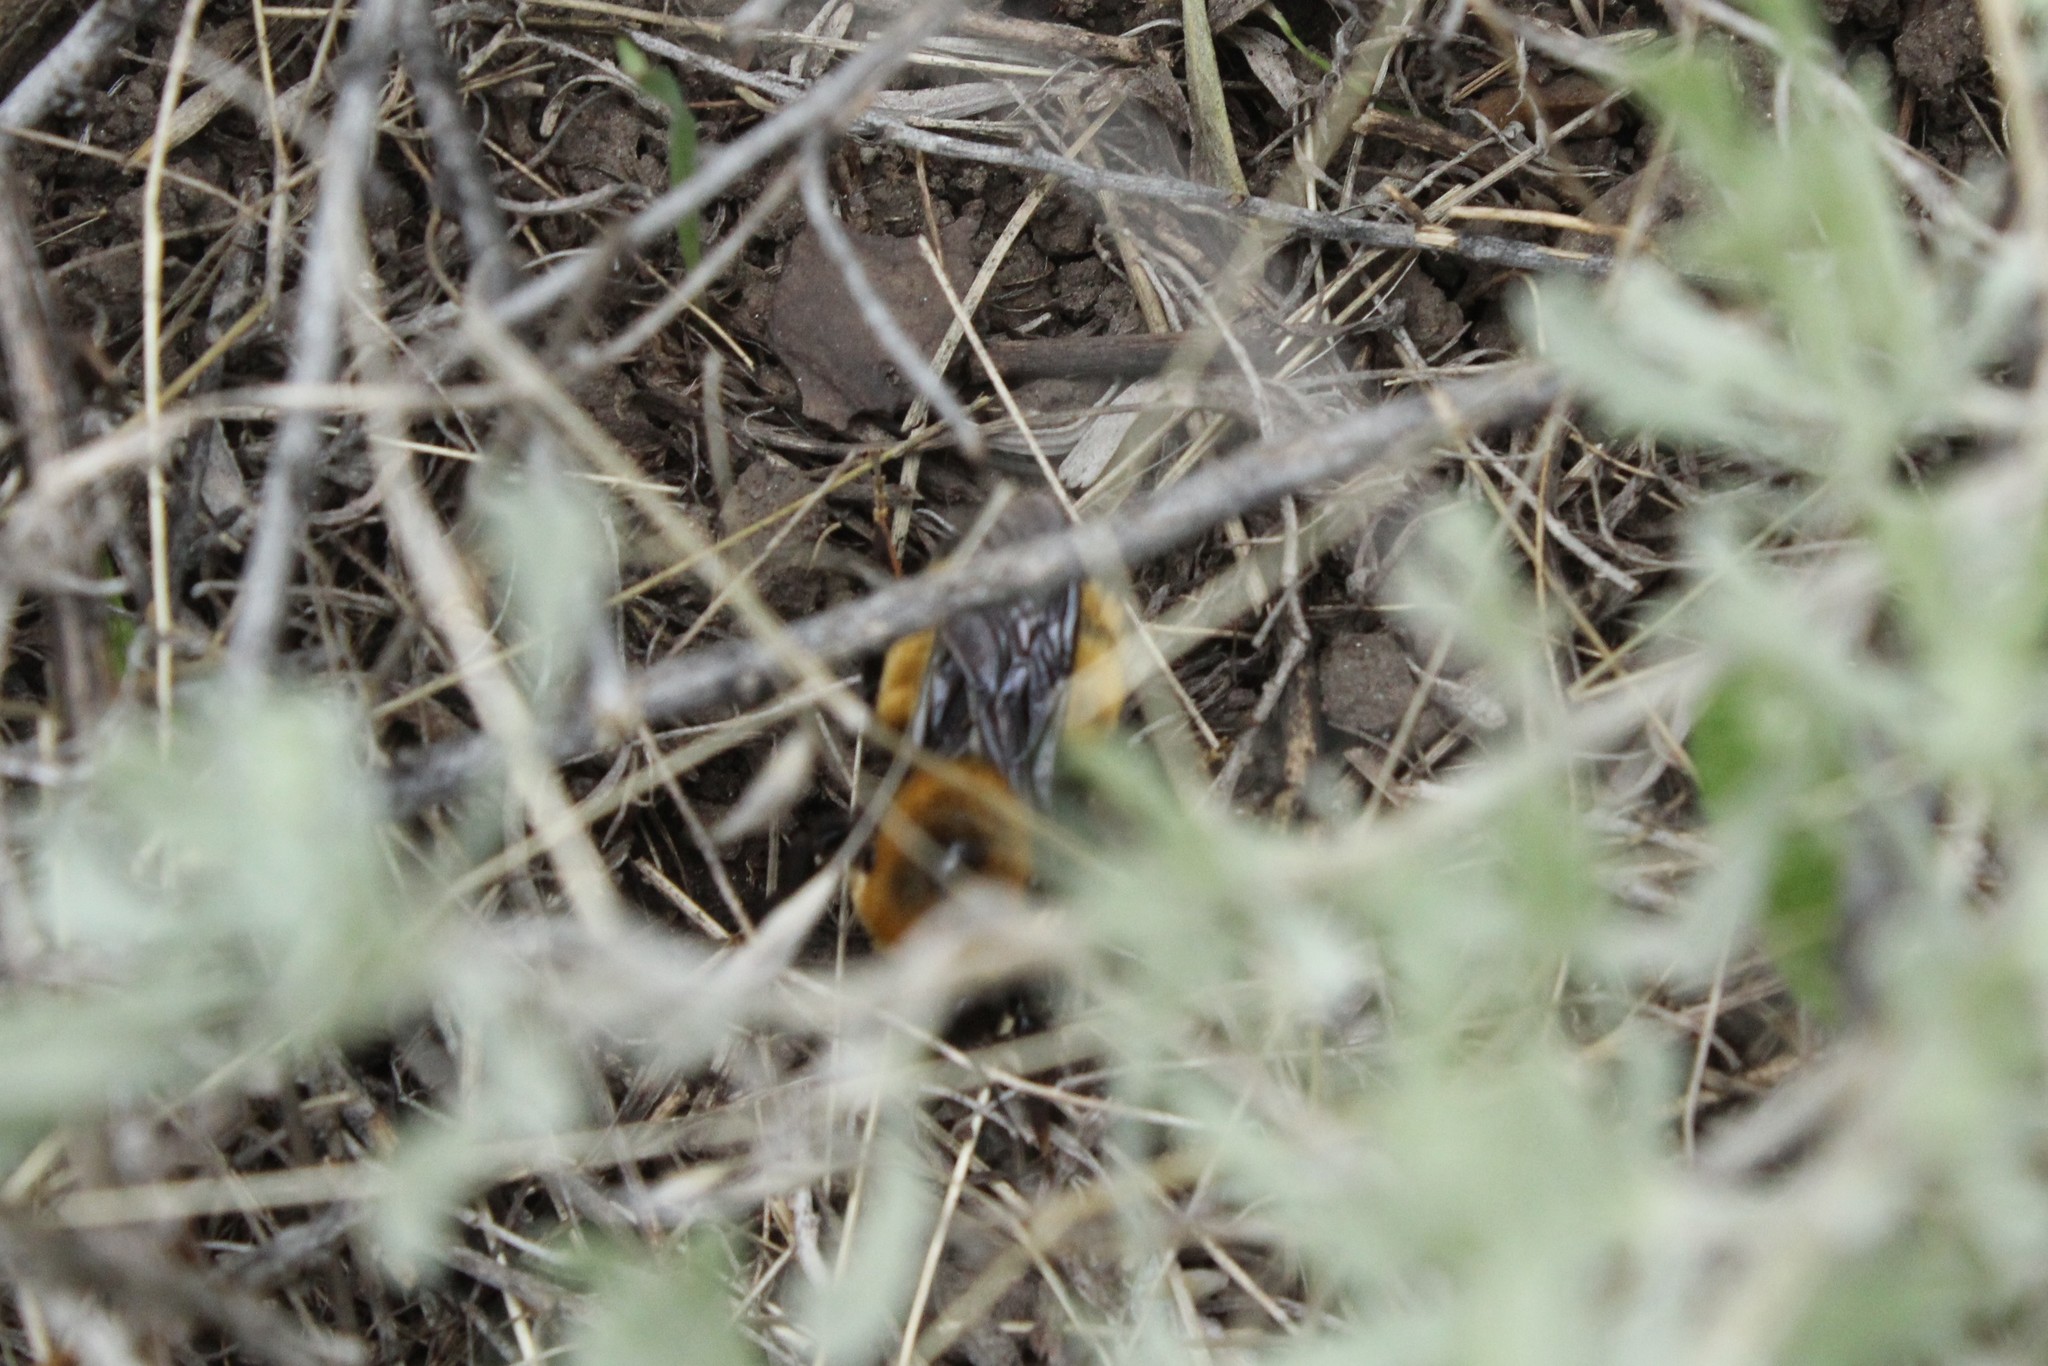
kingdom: Animalia
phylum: Arthropoda
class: Insecta
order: Hymenoptera
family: Apidae
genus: Bombus
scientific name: Bombus nevadensis
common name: Nevada bumble bee
